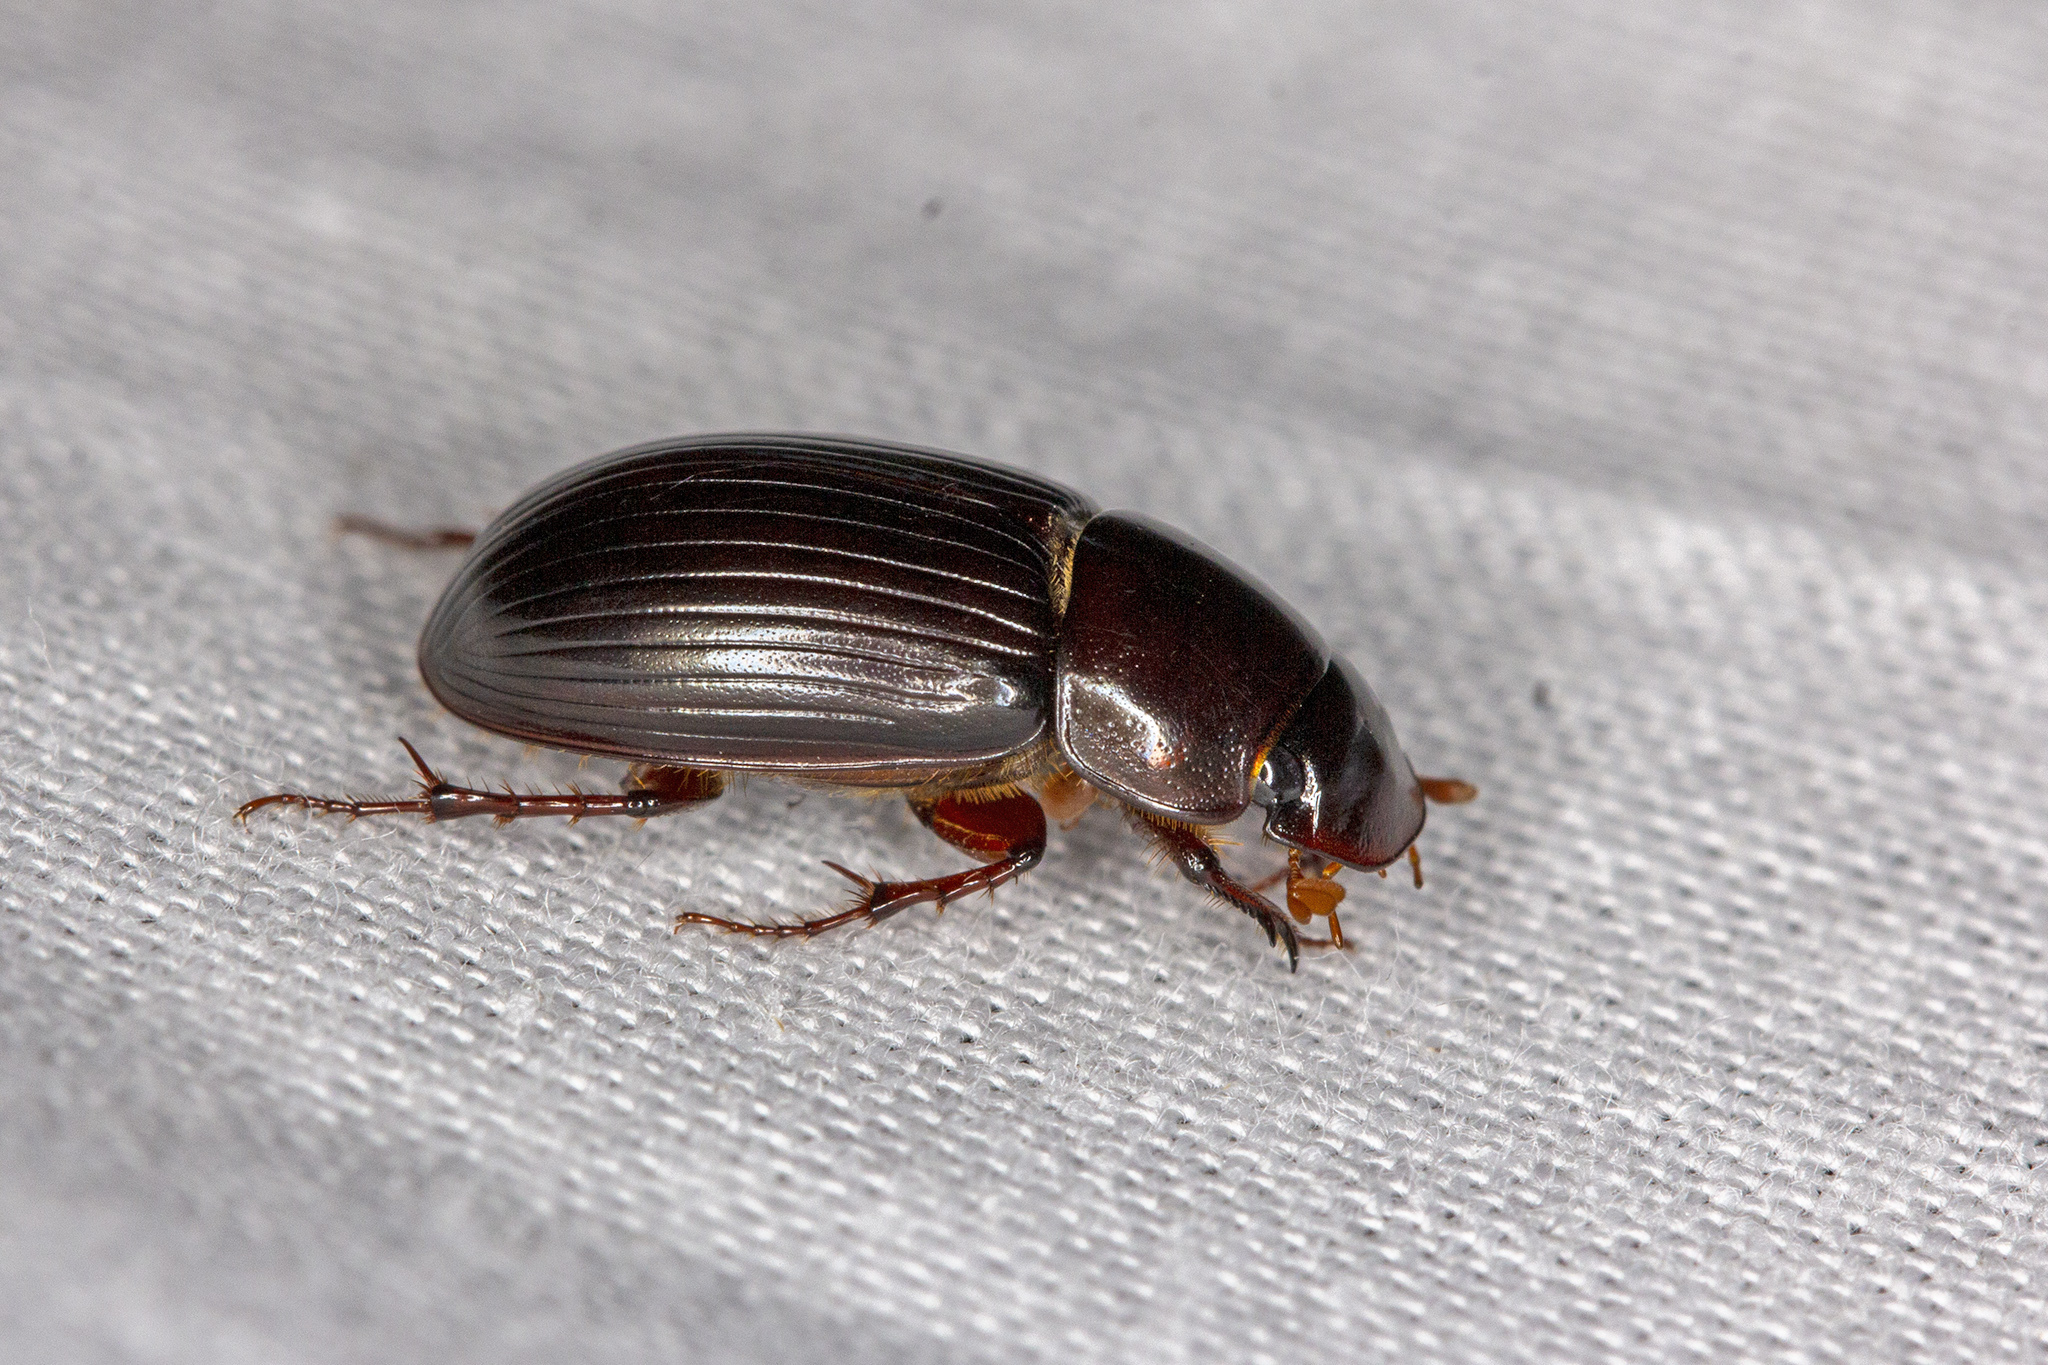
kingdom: Animalia
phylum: Arthropoda
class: Insecta
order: Coleoptera
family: Scarabaeidae
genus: Acrossus
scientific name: Acrossus rufipes
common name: Night-flying dung beetle
